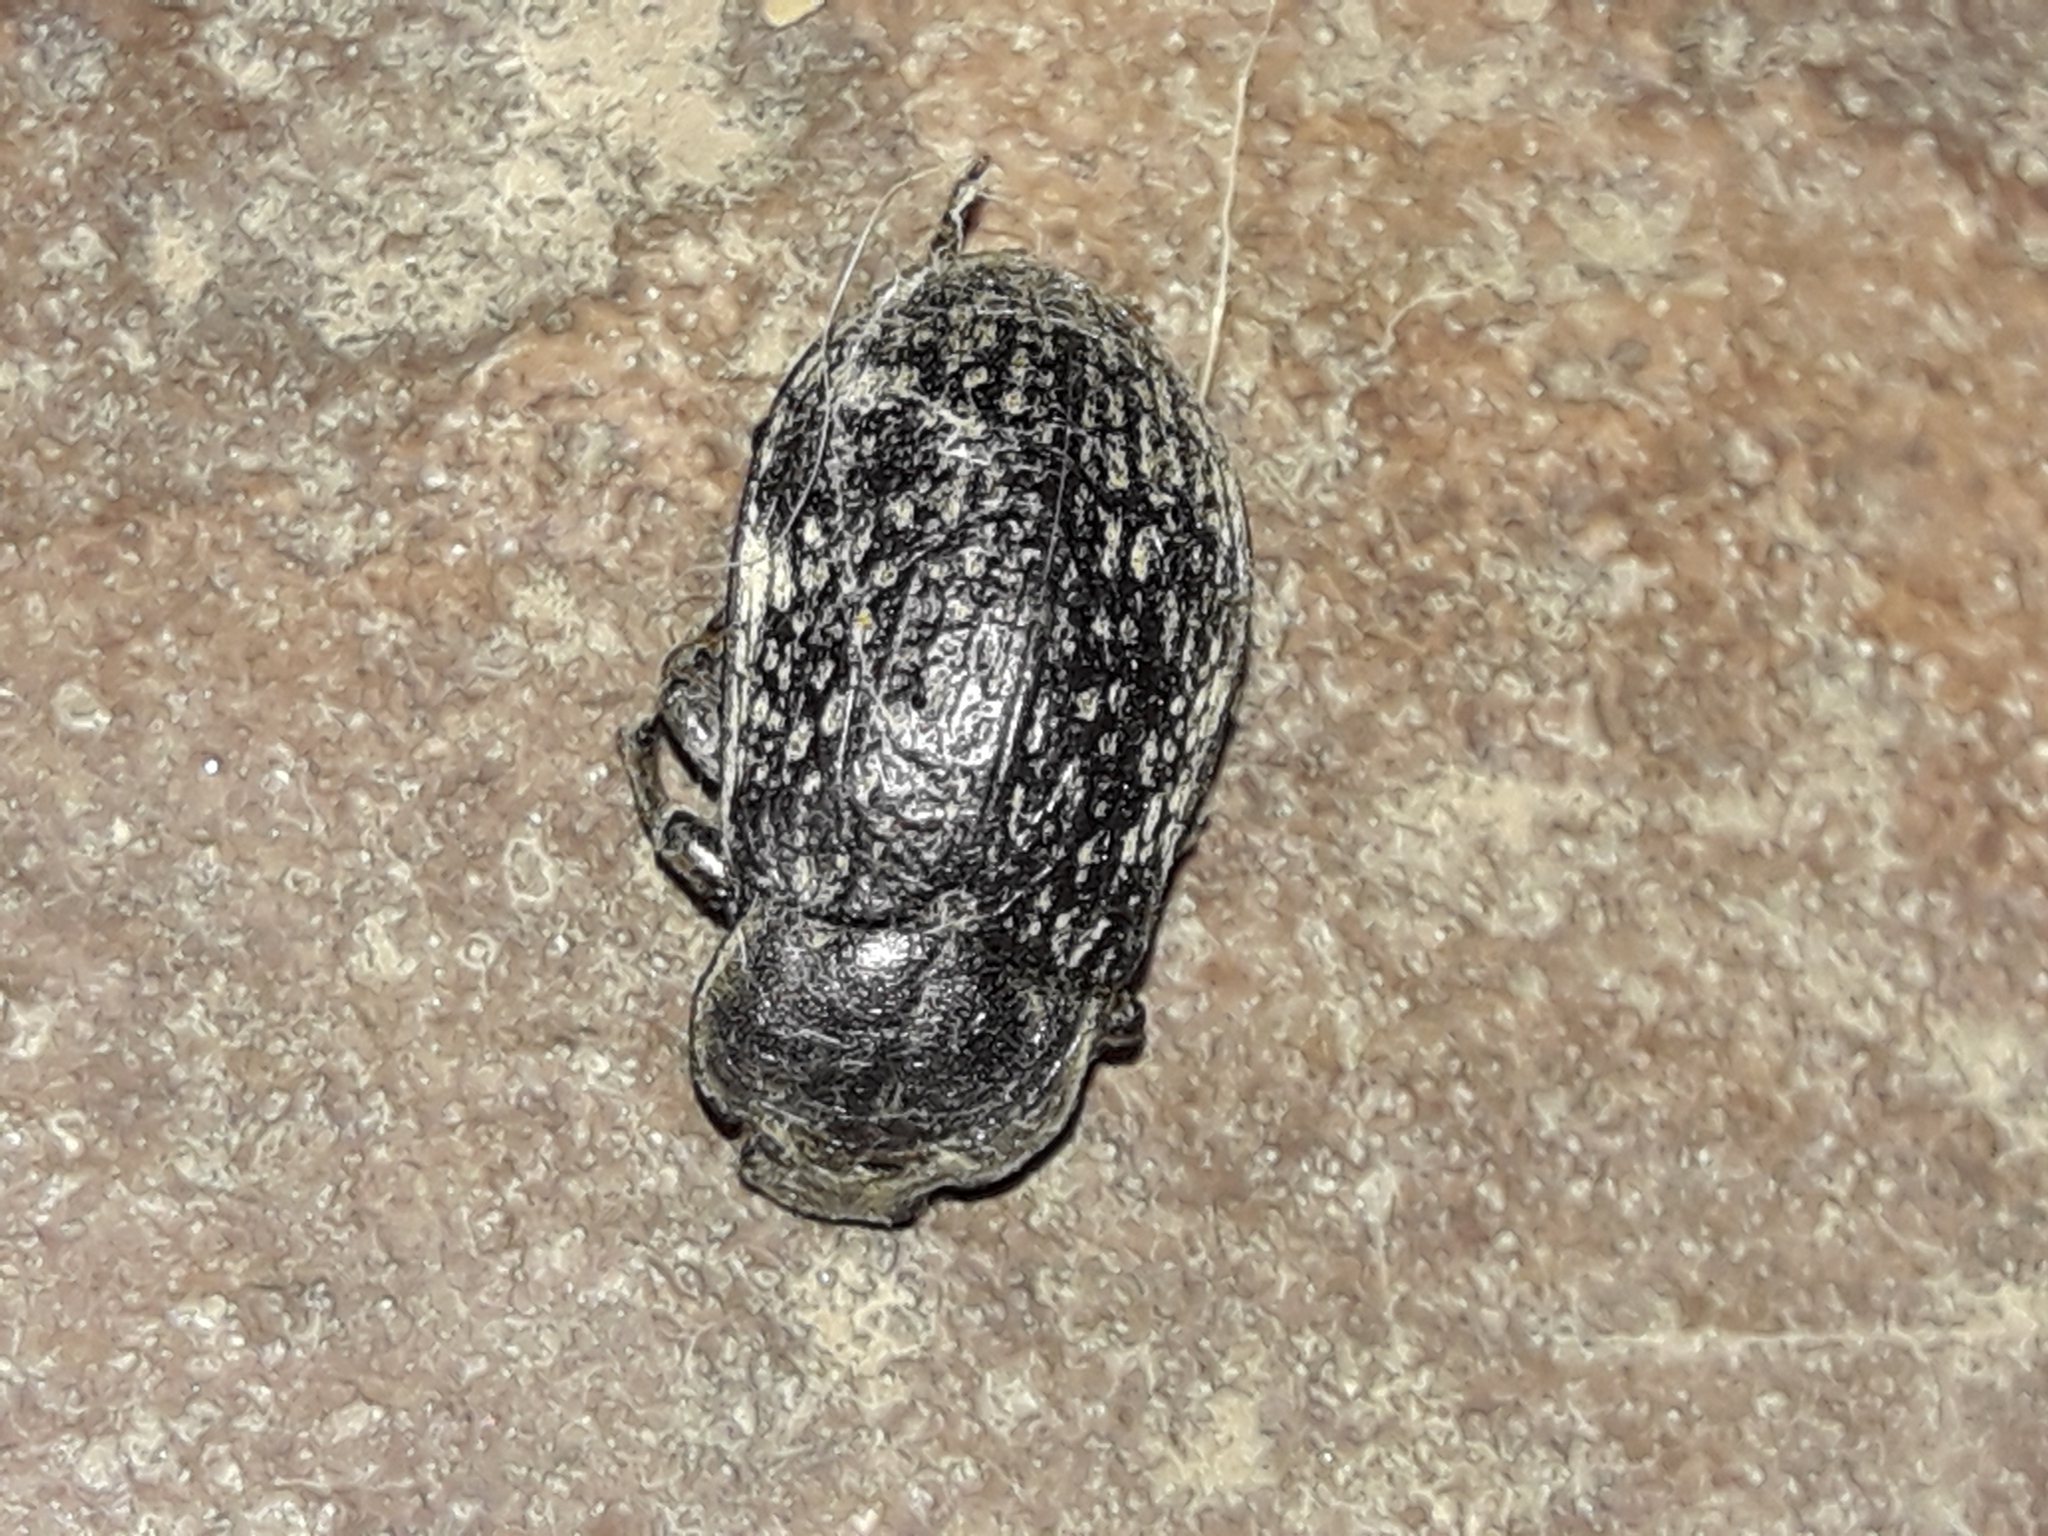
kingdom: Animalia
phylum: Arthropoda
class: Insecta
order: Coleoptera
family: Tenebrionidae
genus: Pachycoelia
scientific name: Pachycoelia
